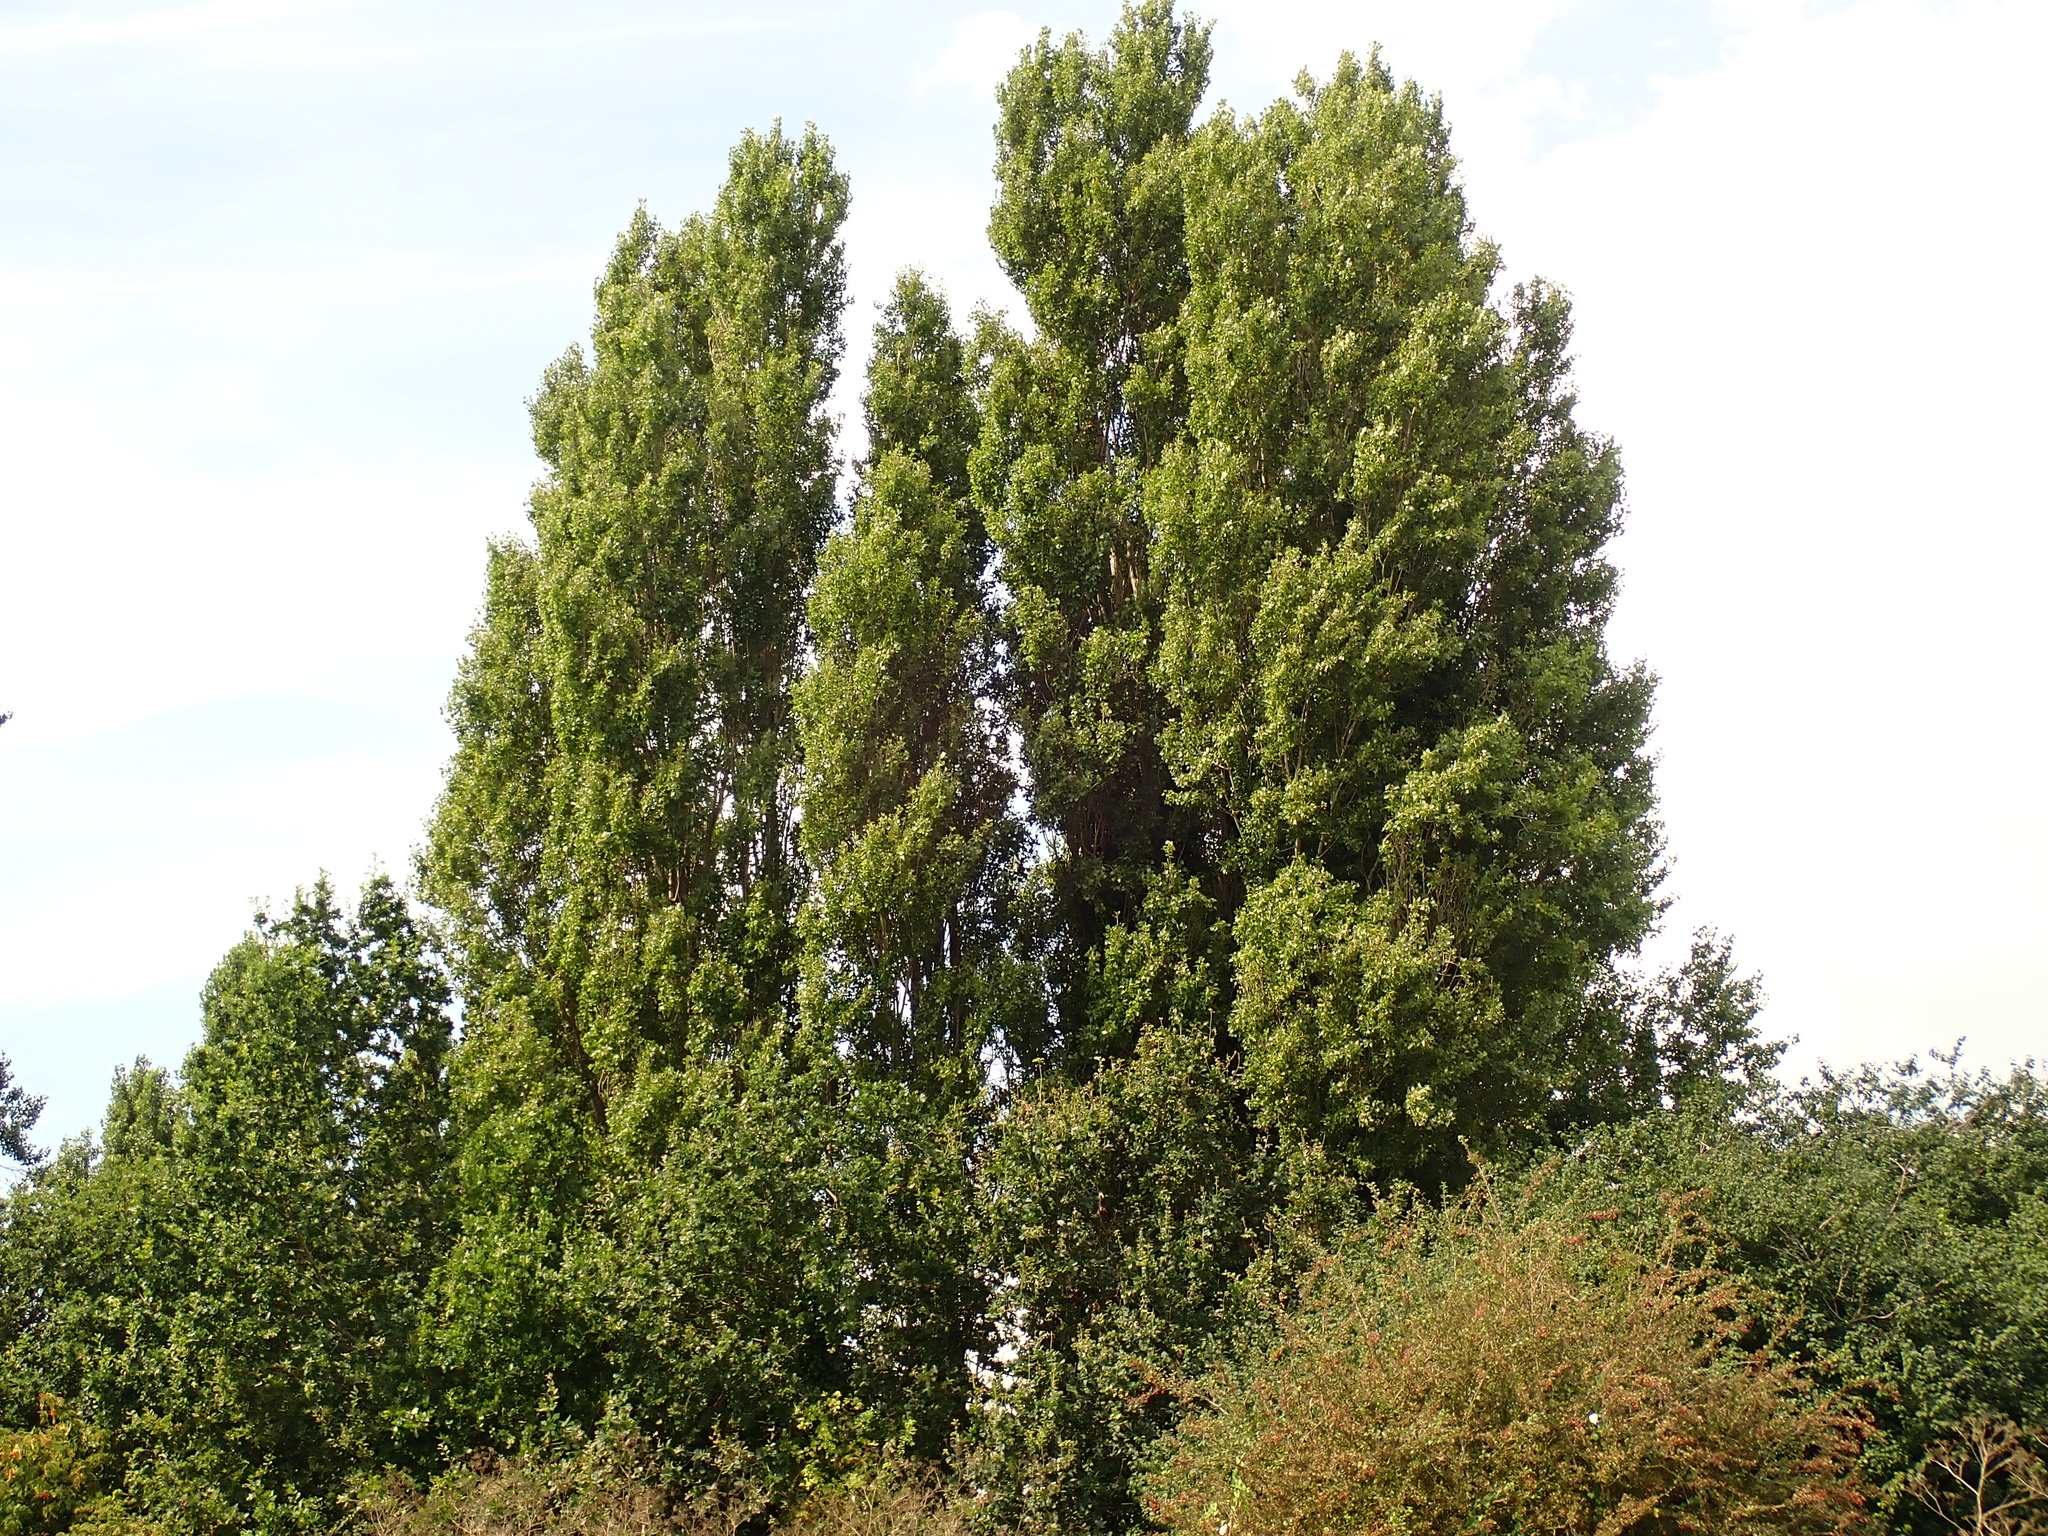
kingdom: Plantae
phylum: Tracheophyta
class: Magnoliopsida
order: Malpighiales
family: Salicaceae
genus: Populus
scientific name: Populus nigra
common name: Black poplar
